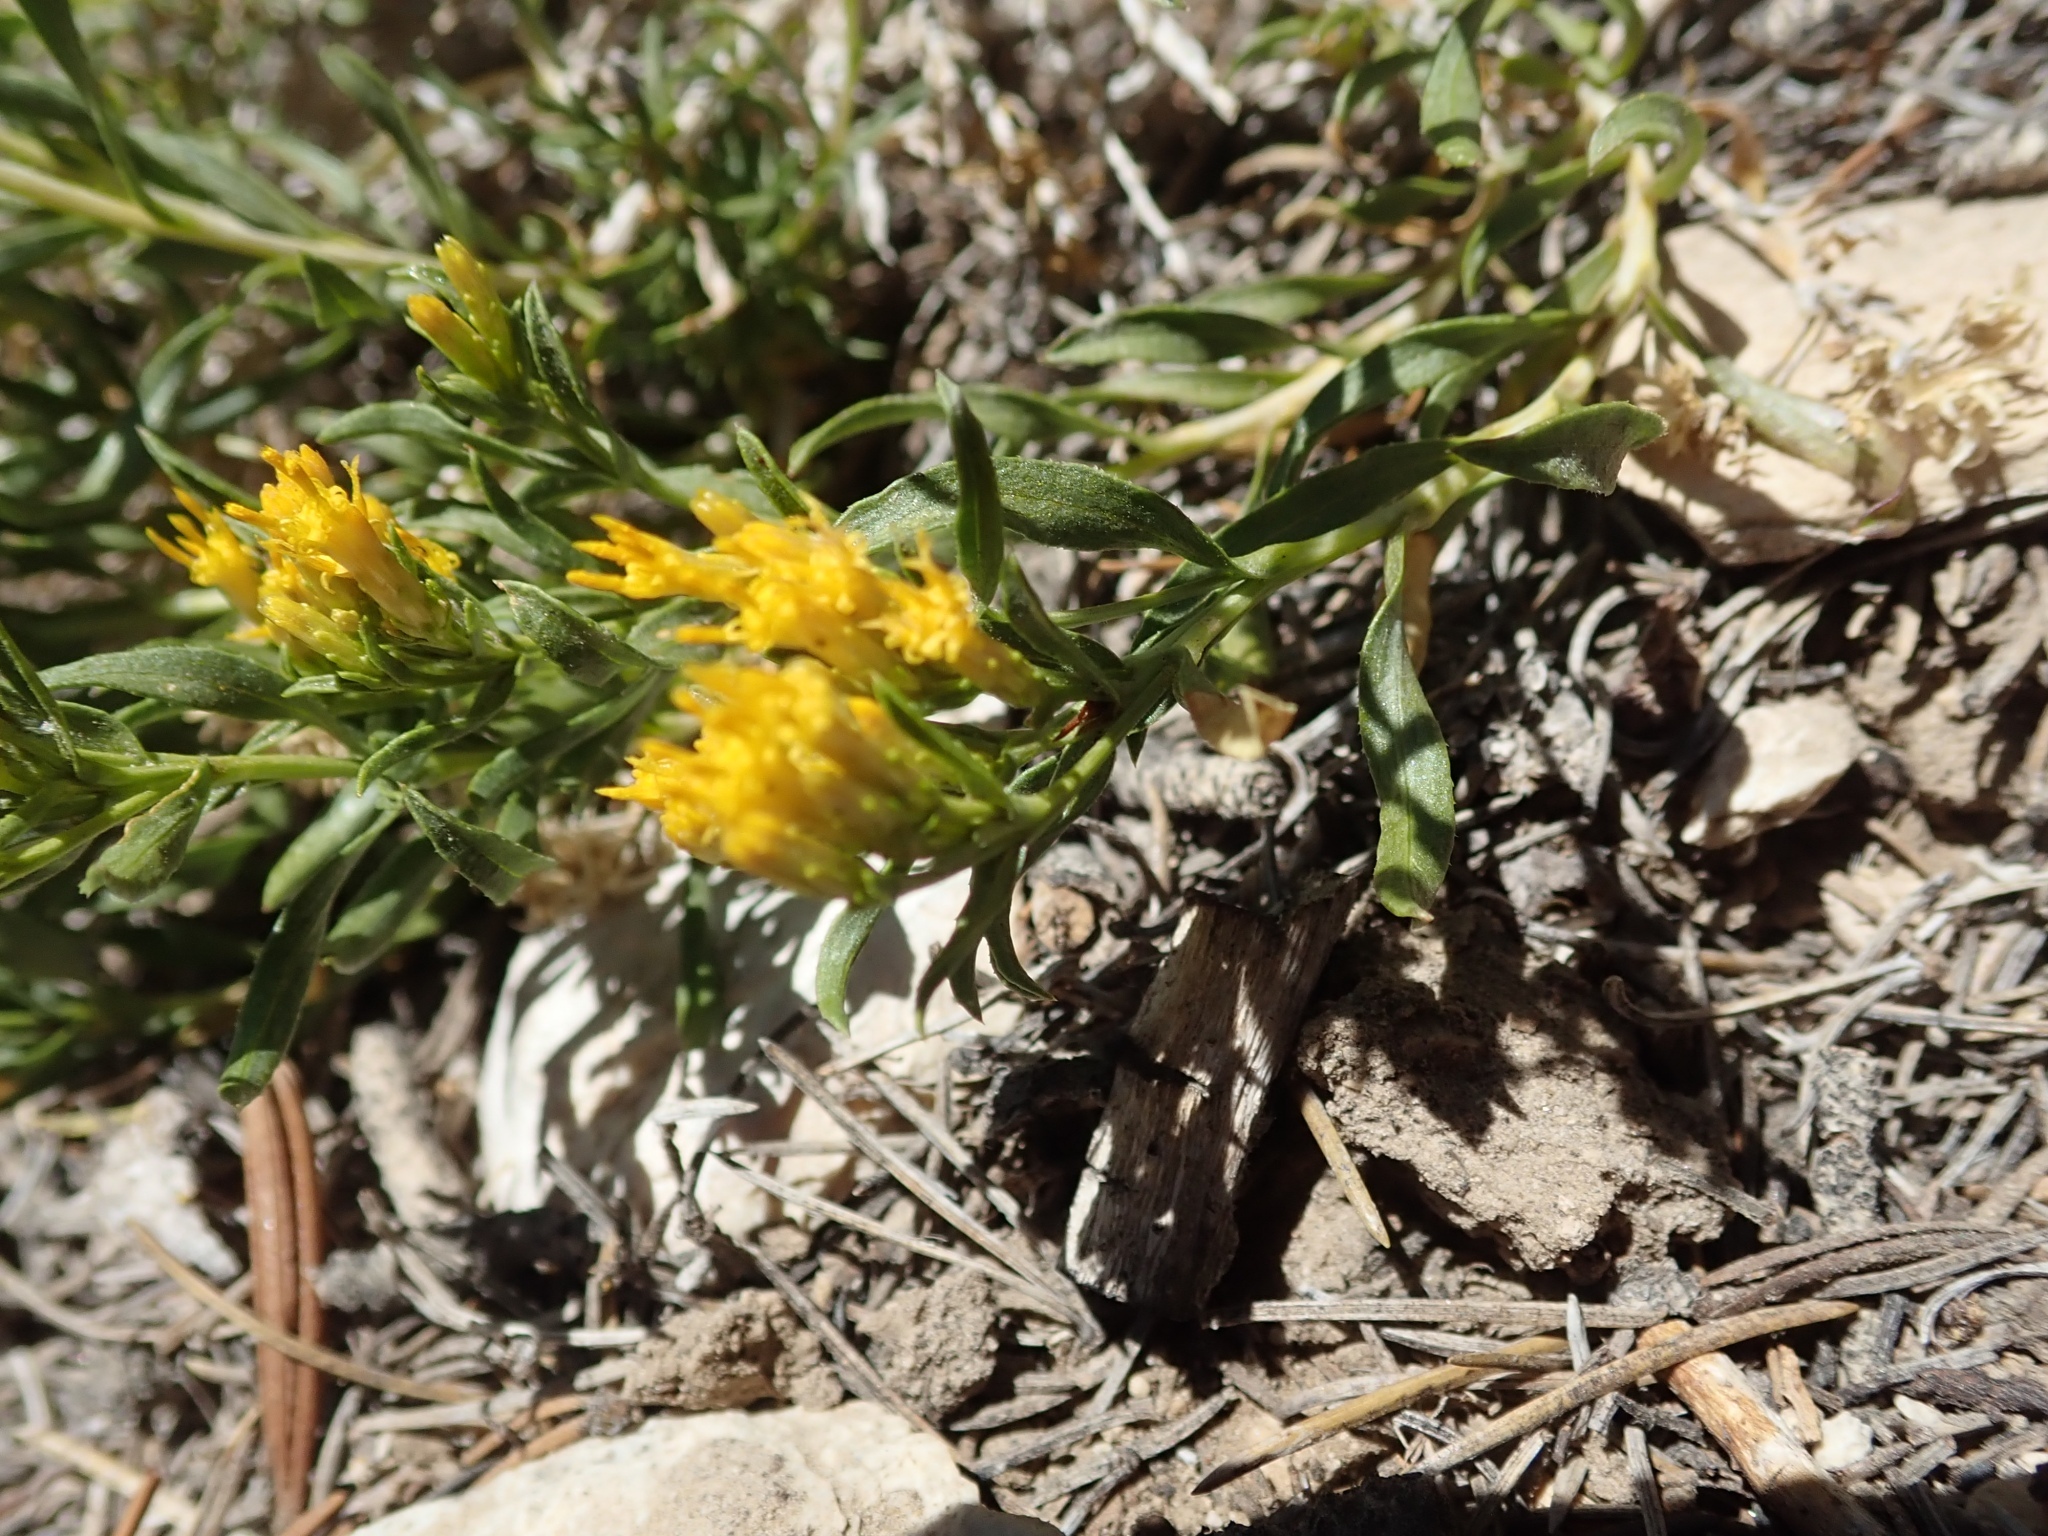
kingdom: Plantae
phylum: Tracheophyta
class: Magnoliopsida
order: Asterales
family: Asteraceae
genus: Chrysothamnus
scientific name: Chrysothamnus viscidiflorus
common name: Yellow rabbitbrush
